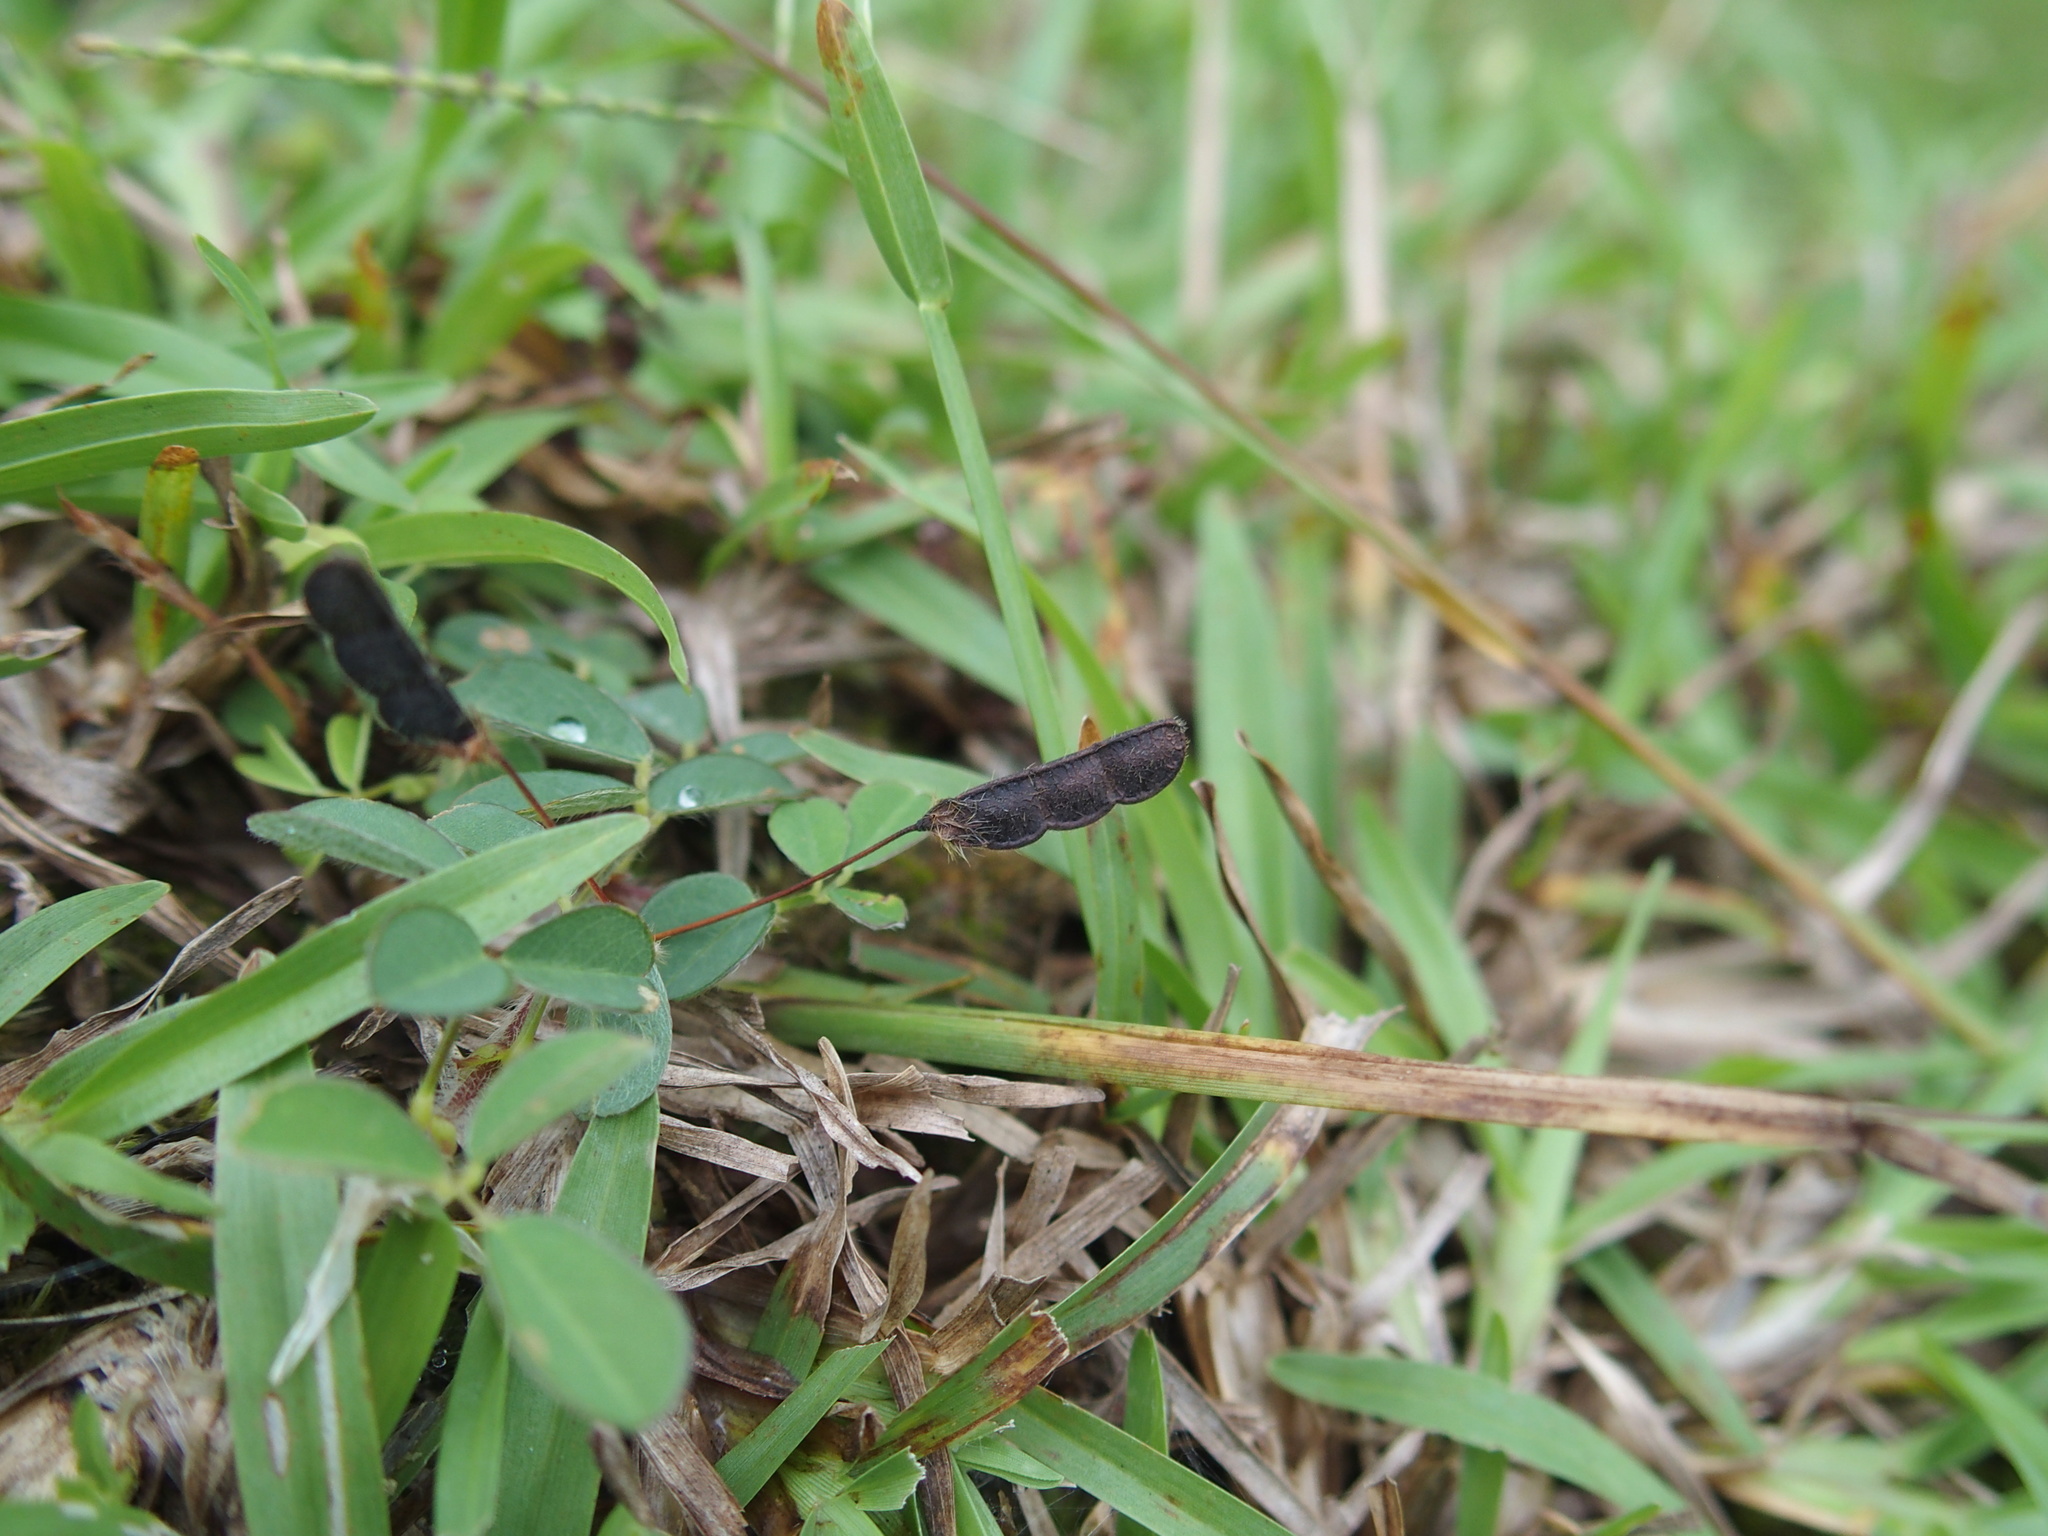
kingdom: Plantae
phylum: Tracheophyta
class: Magnoliopsida
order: Fabales
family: Fabaceae
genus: Grona
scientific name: Grona triflora
